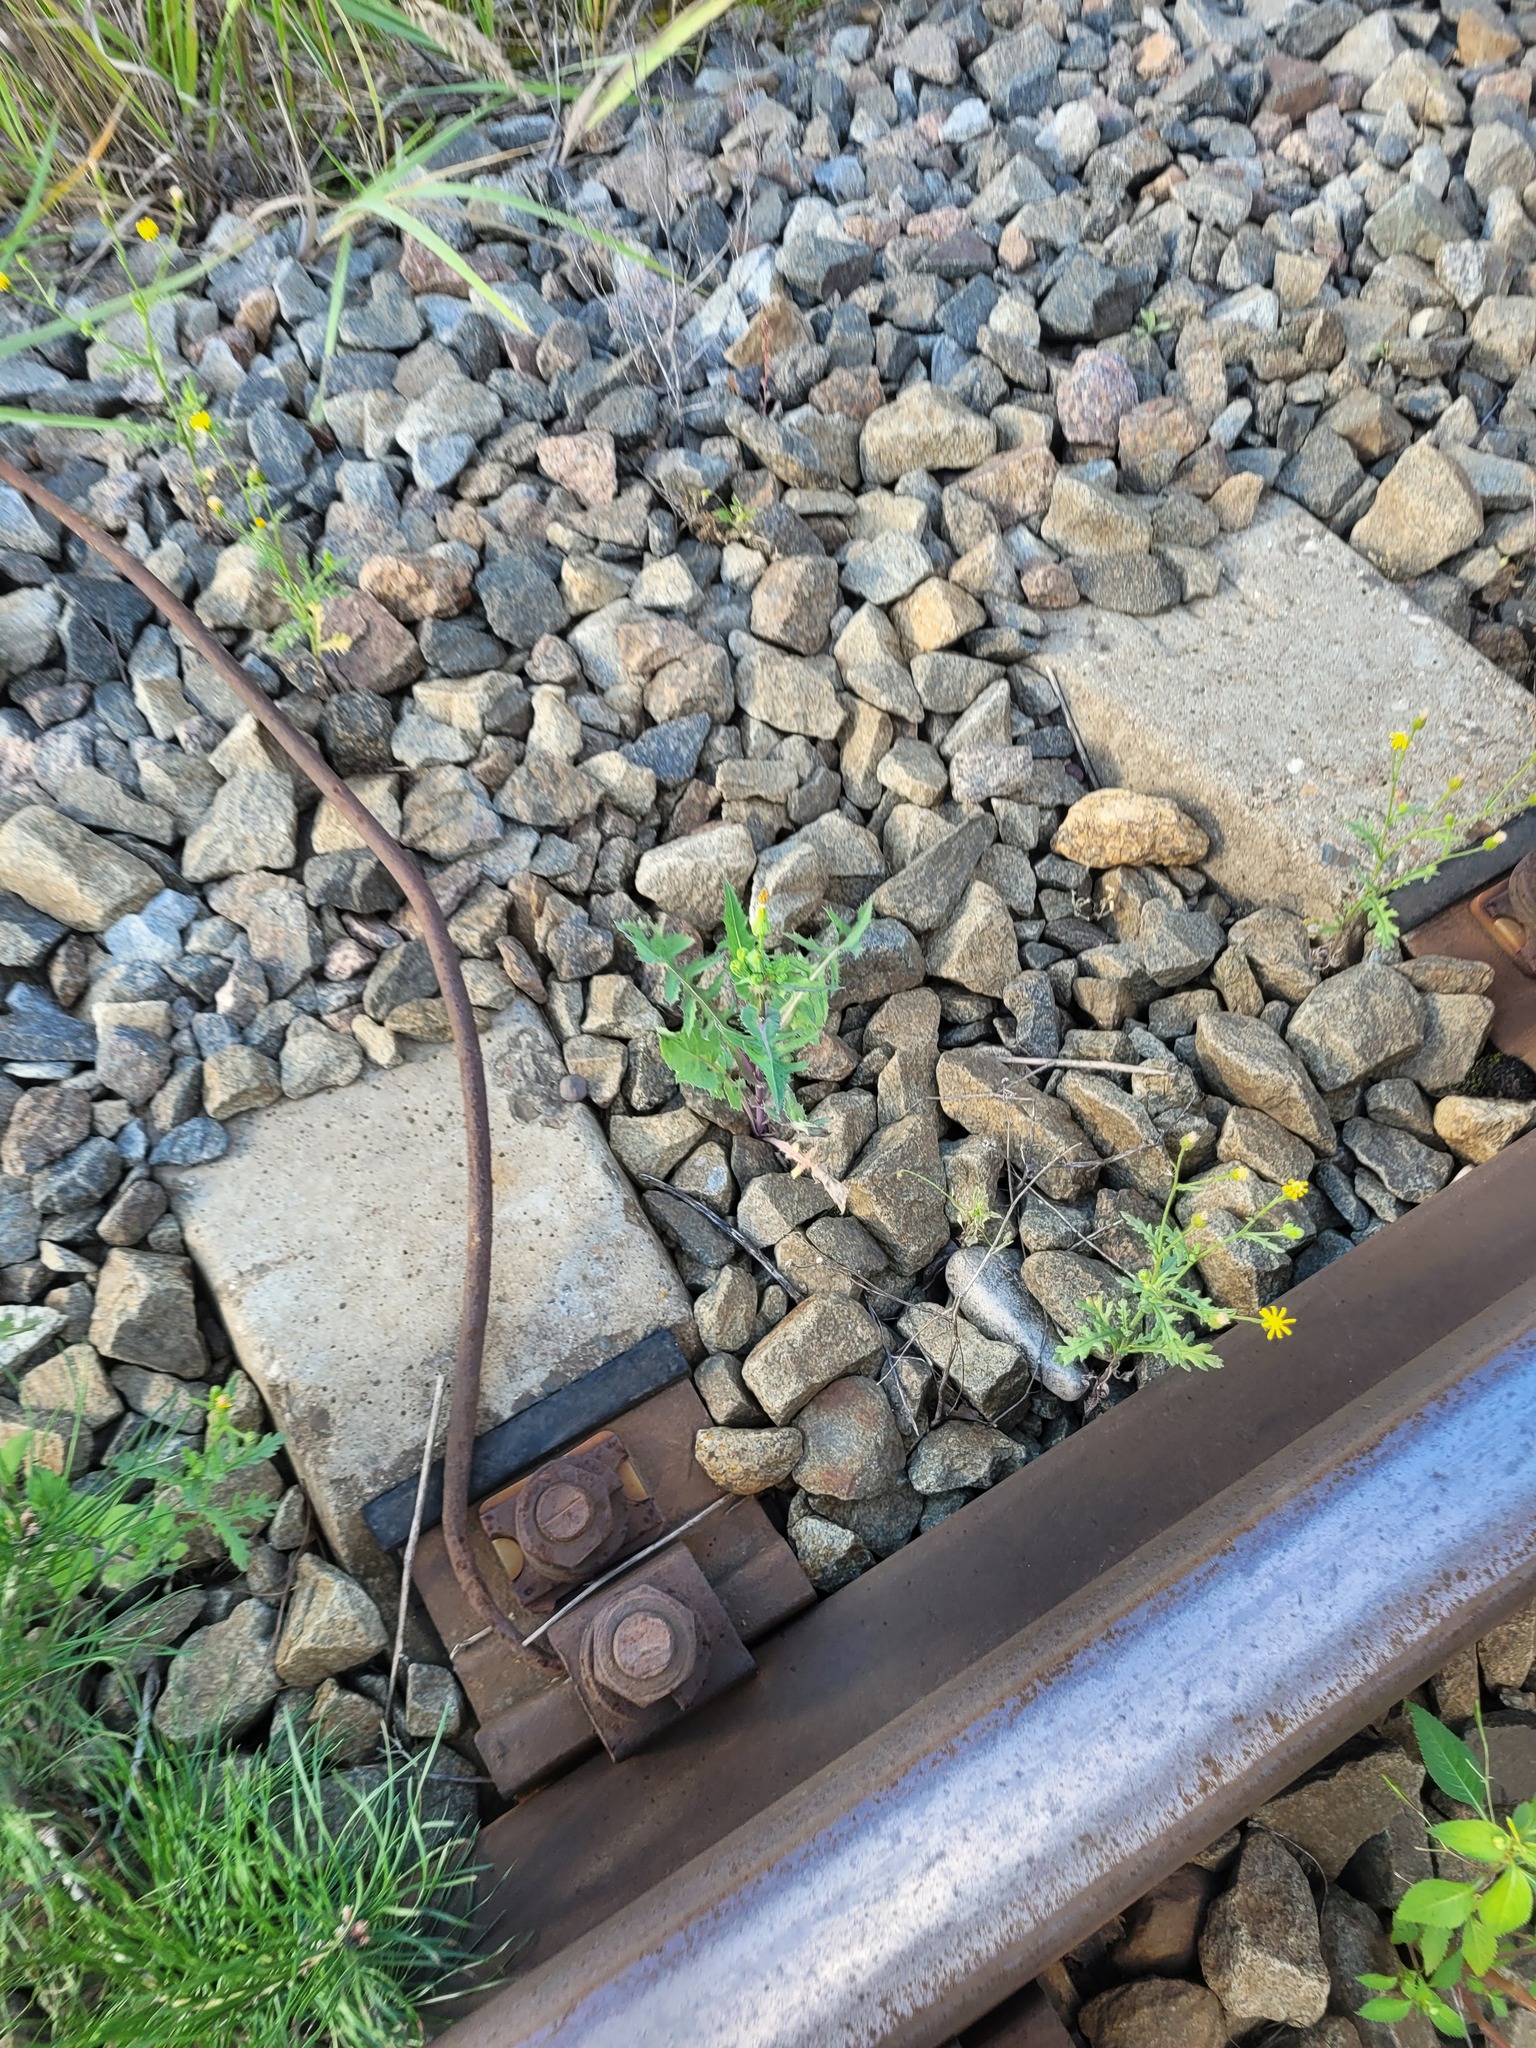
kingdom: Plantae
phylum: Tracheophyta
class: Magnoliopsida
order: Asterales
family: Asteraceae
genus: Sonchus
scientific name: Sonchus oleraceus
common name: Common sowthistle
